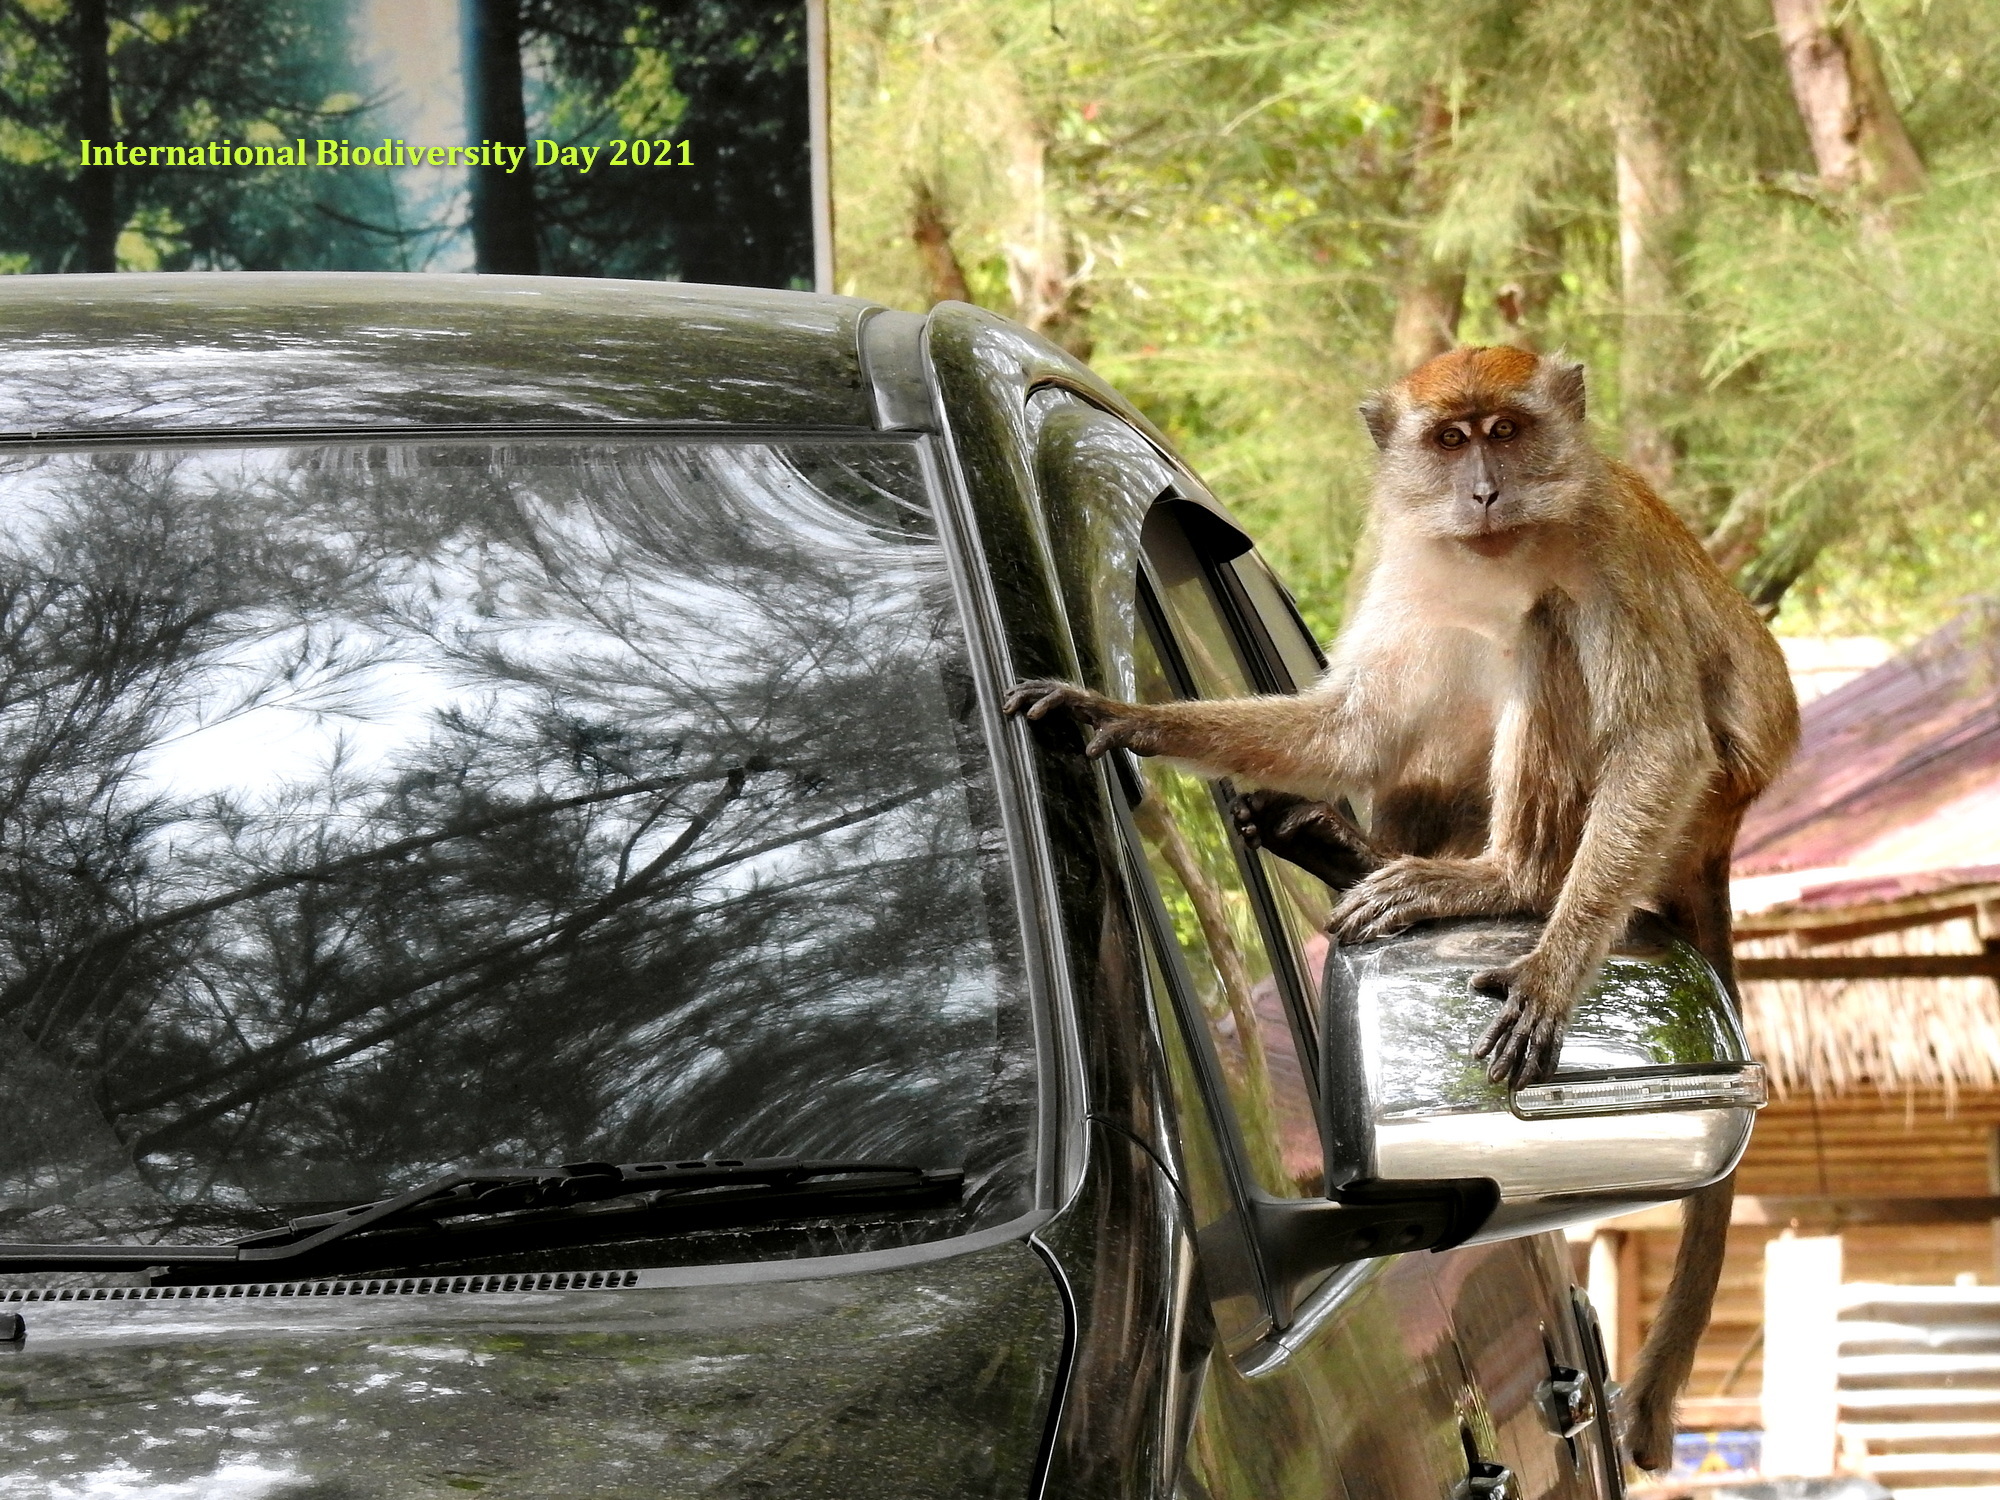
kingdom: Animalia
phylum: Chordata
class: Mammalia
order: Primates
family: Cercopithecidae
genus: Macaca
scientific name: Macaca fascicularis
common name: Crab-eating macaque
